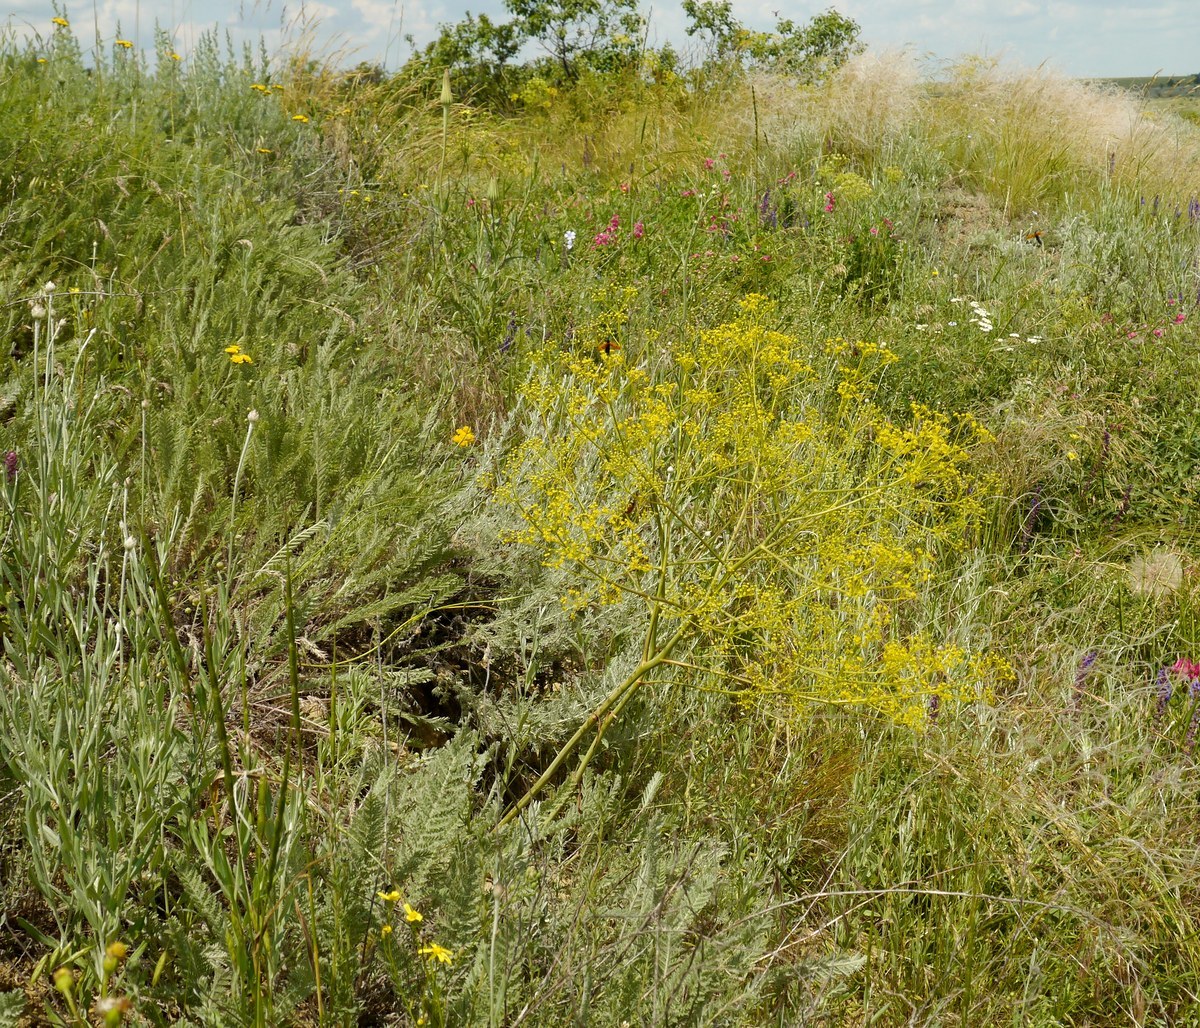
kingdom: Plantae
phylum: Tracheophyta
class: Magnoliopsida
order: Apiales
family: Apiaceae
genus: Ferula
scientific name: Ferula caspica
